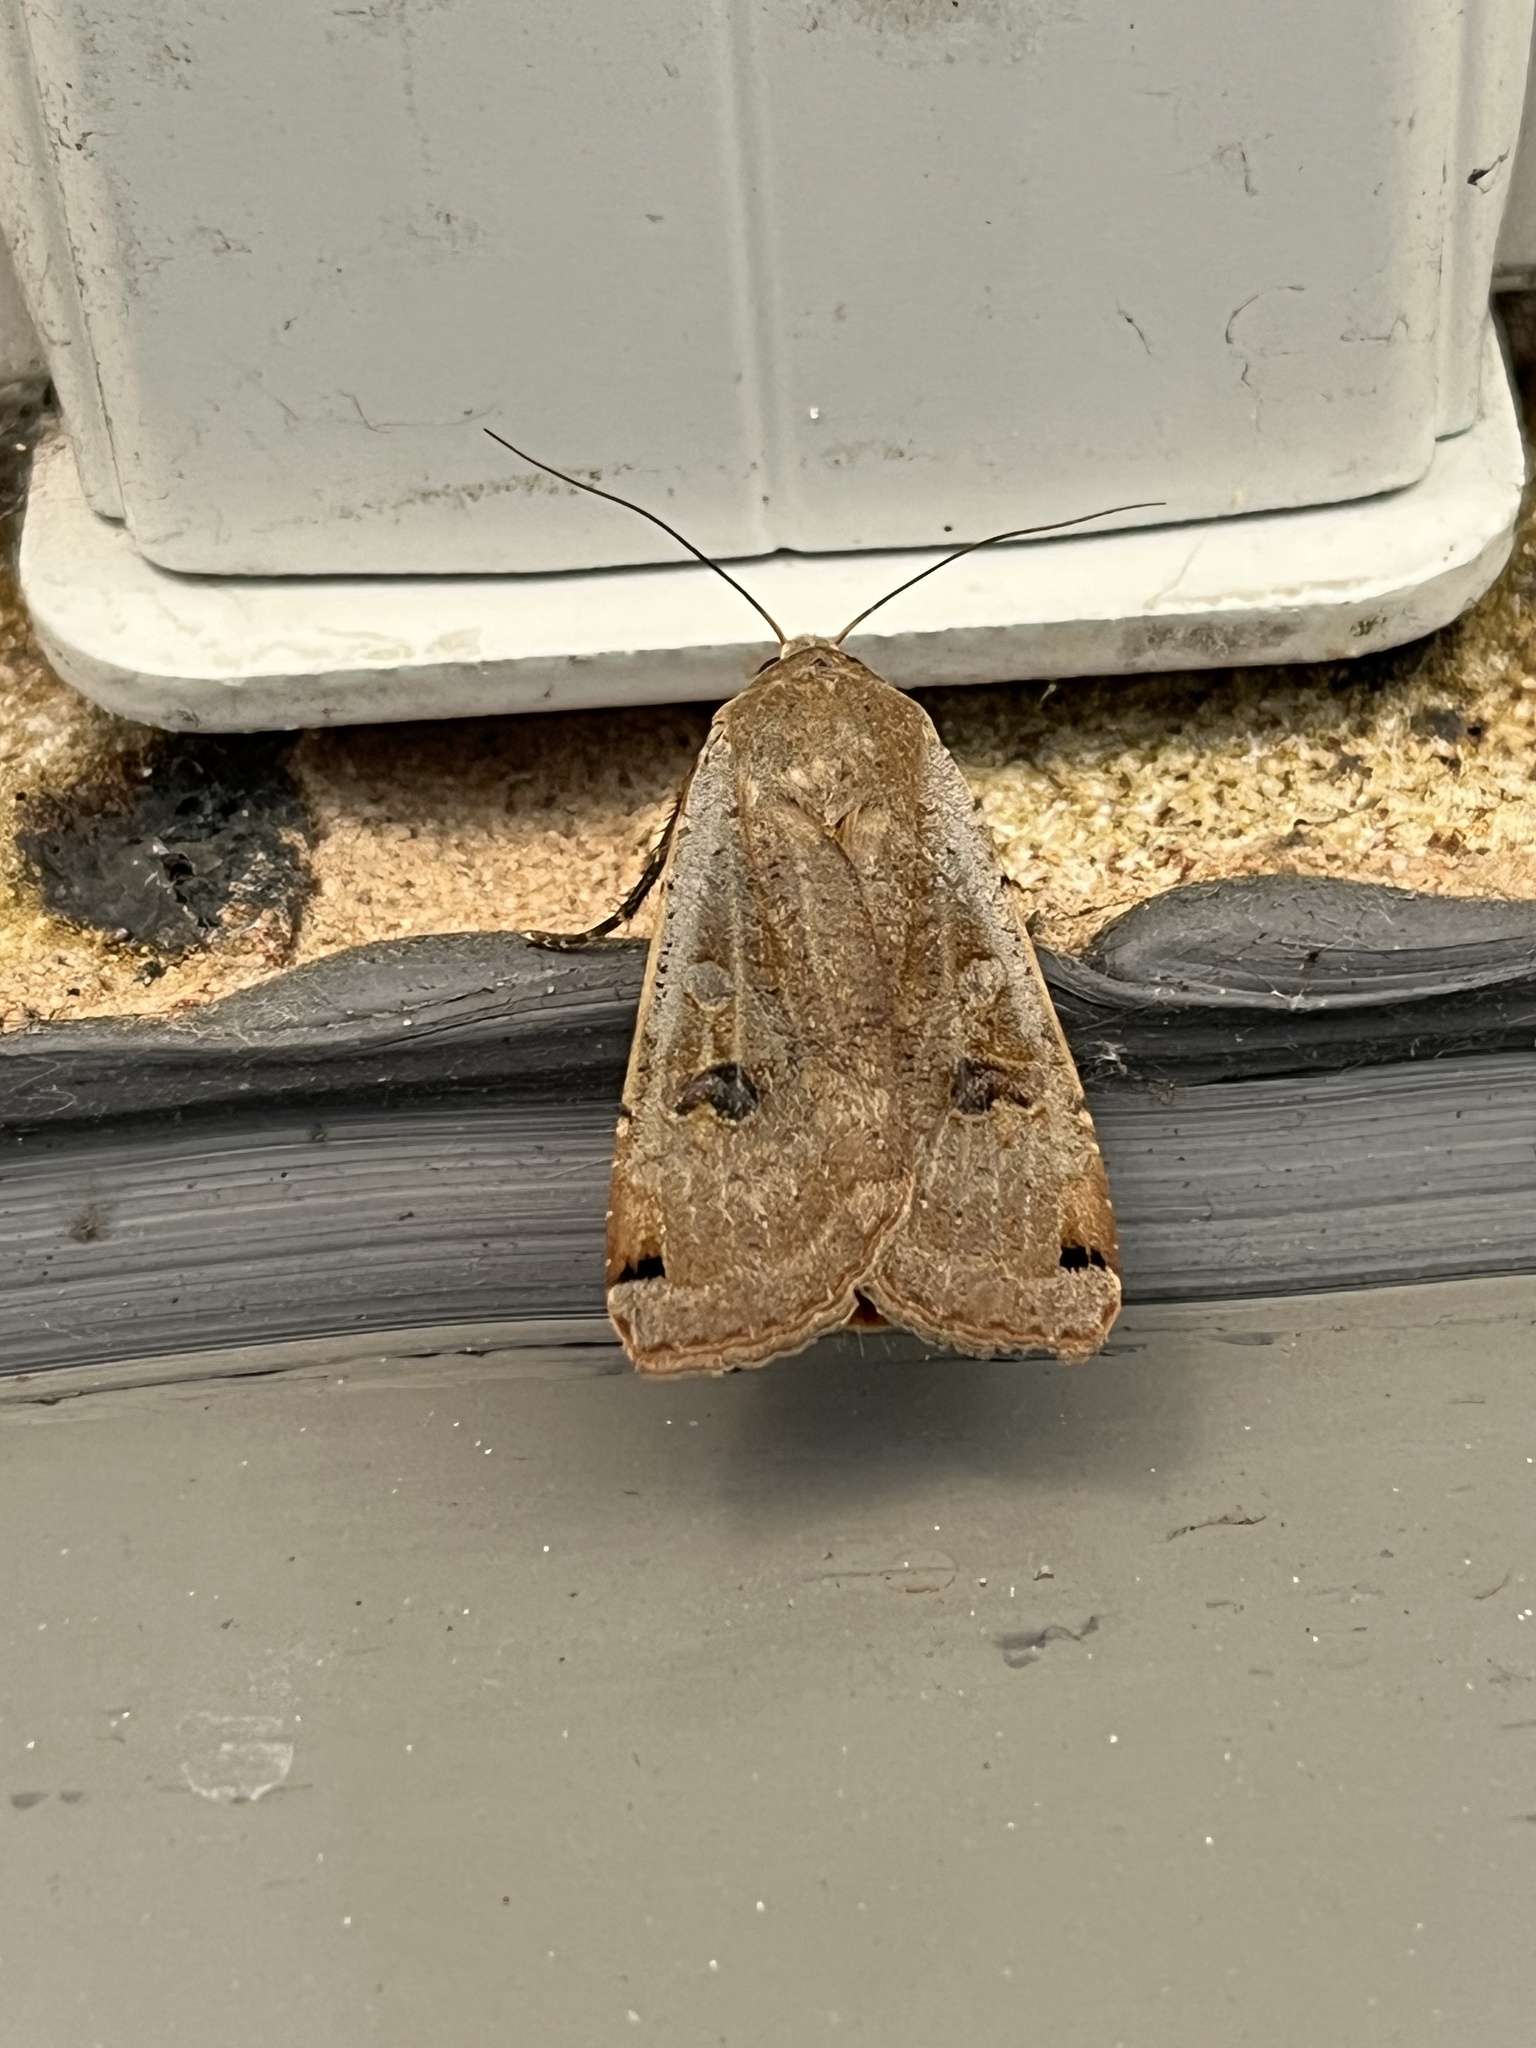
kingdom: Animalia
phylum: Arthropoda
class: Insecta
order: Lepidoptera
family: Noctuidae
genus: Noctua
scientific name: Noctua pronuba
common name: Large yellow underwing
